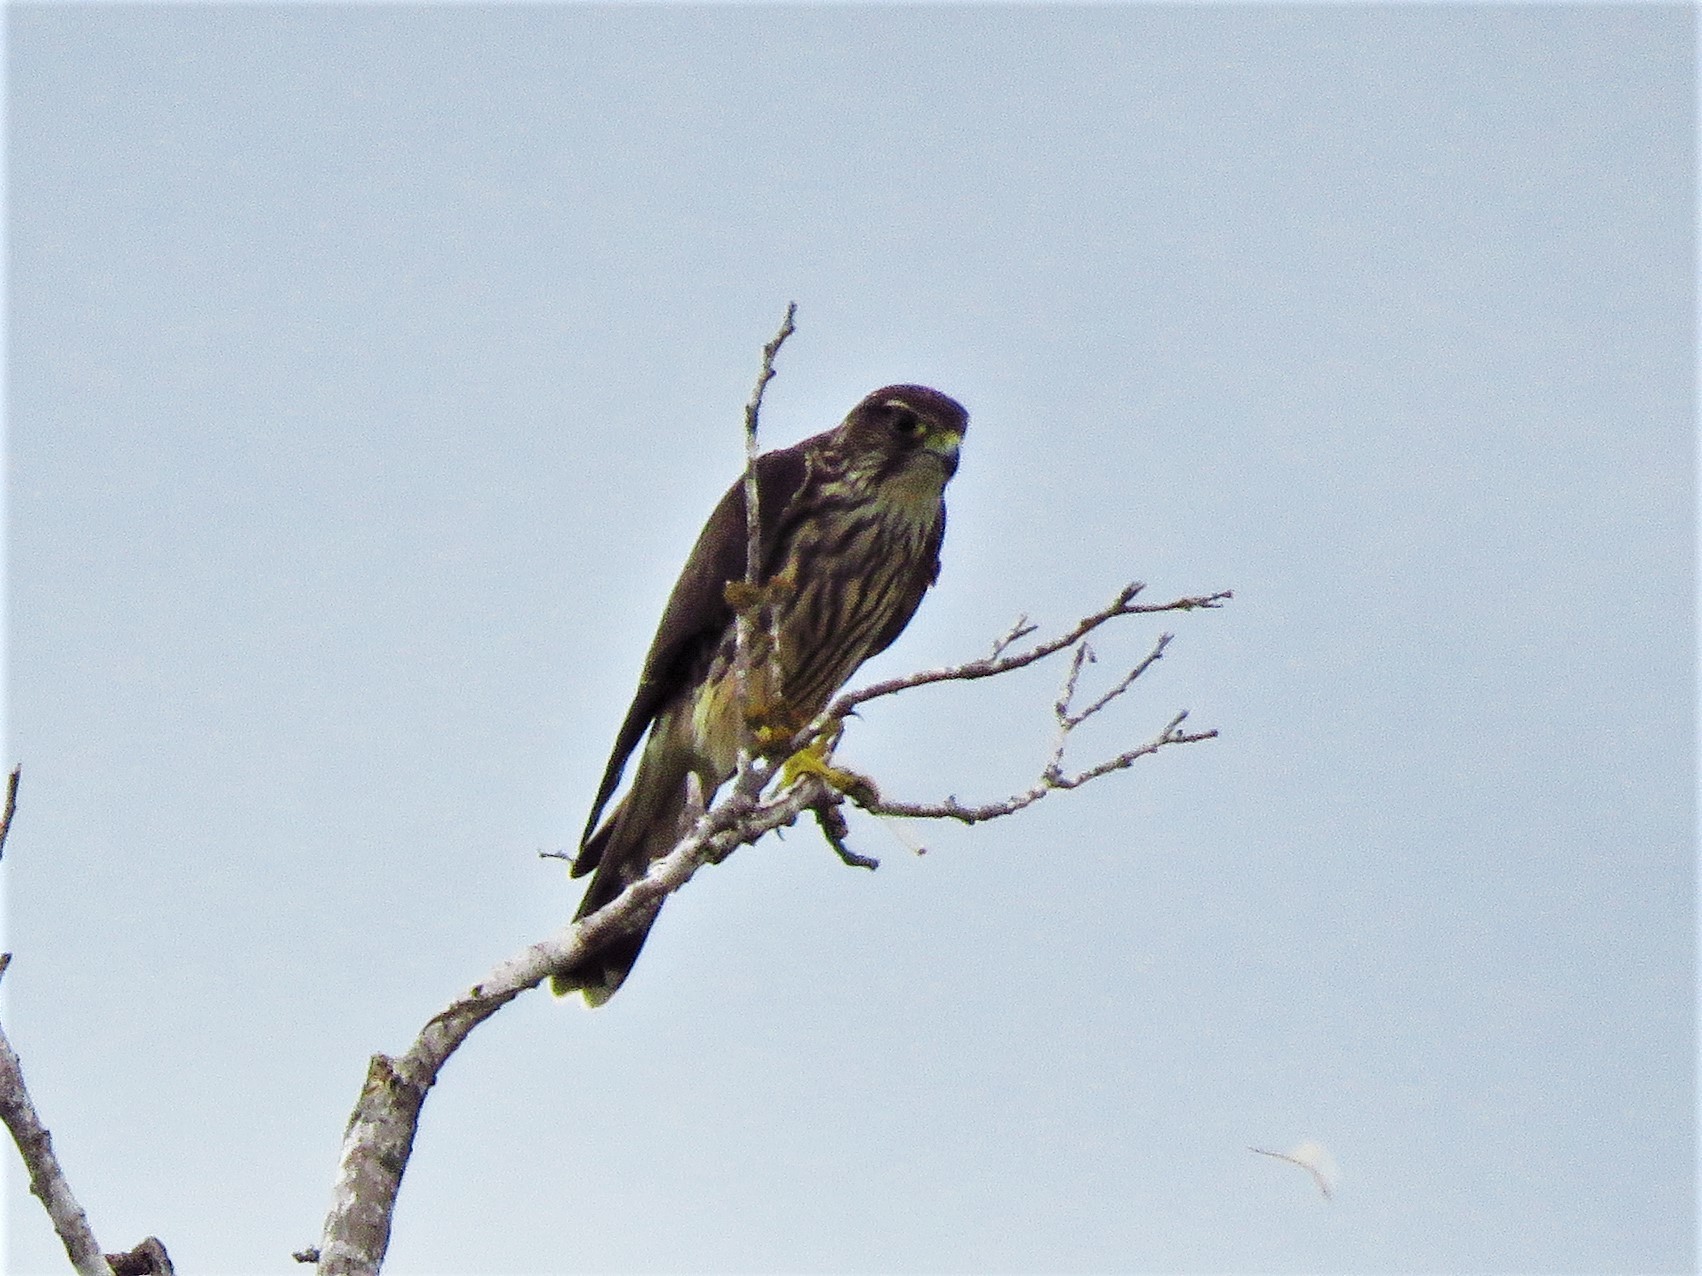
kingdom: Animalia
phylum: Chordata
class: Aves
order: Falconiformes
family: Falconidae
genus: Falco
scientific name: Falco columbarius
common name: Merlin
